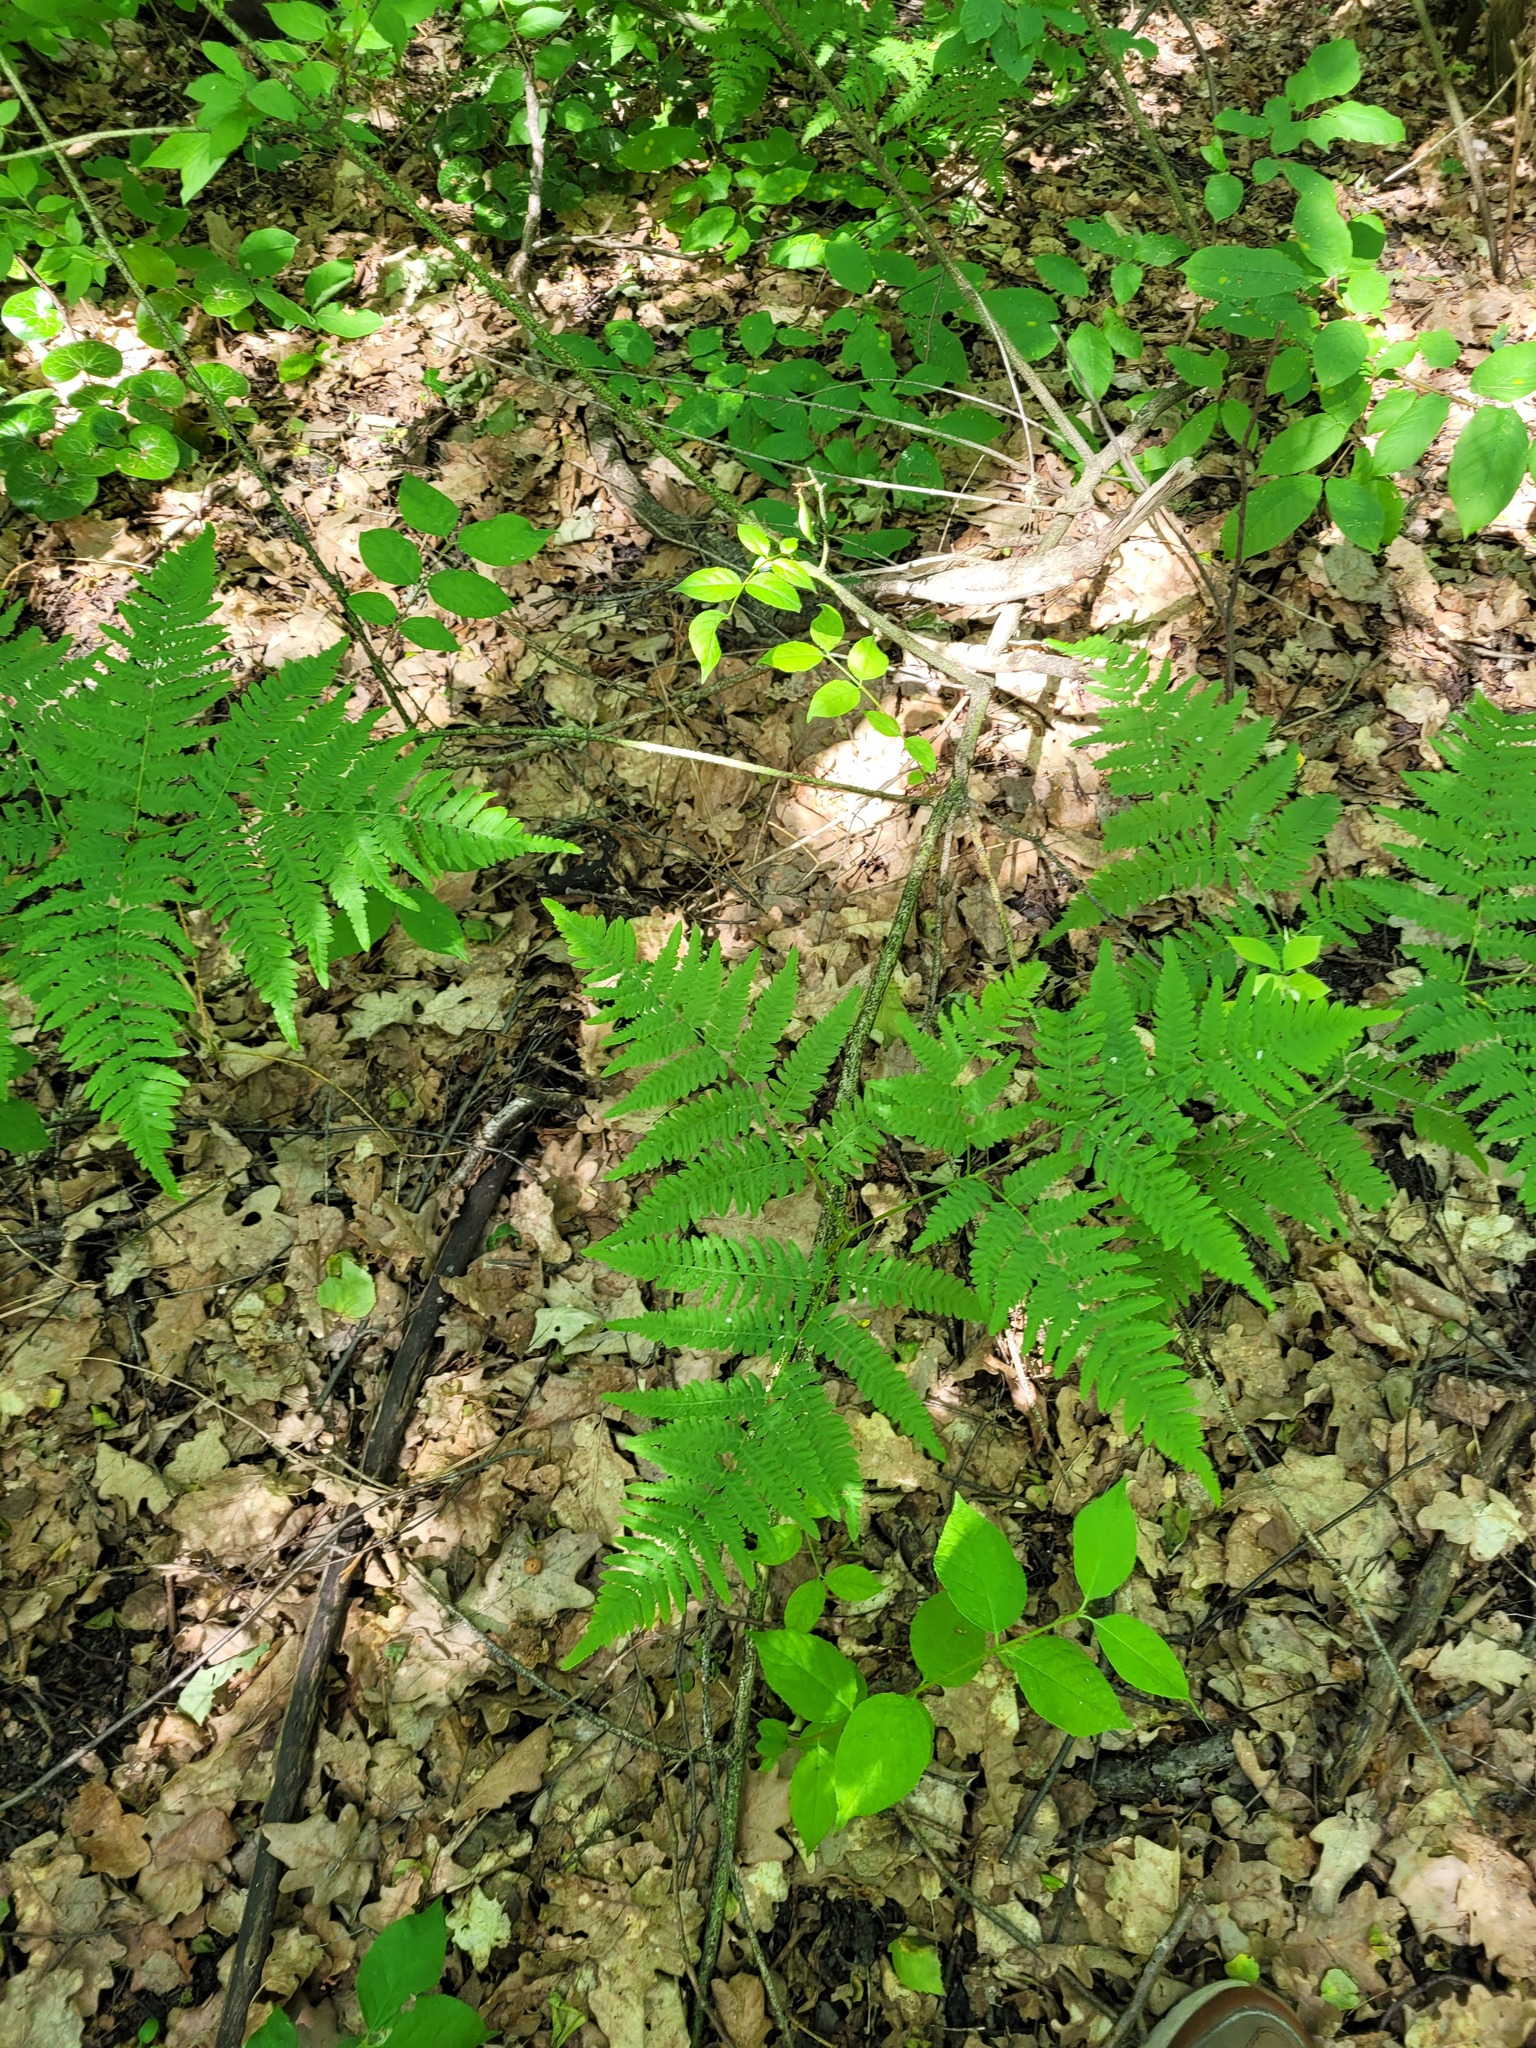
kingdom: Plantae
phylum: Tracheophyta
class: Polypodiopsida
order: Polypodiales
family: Dennstaedtiaceae
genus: Pteridium
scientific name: Pteridium aquilinum
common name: Bracken
